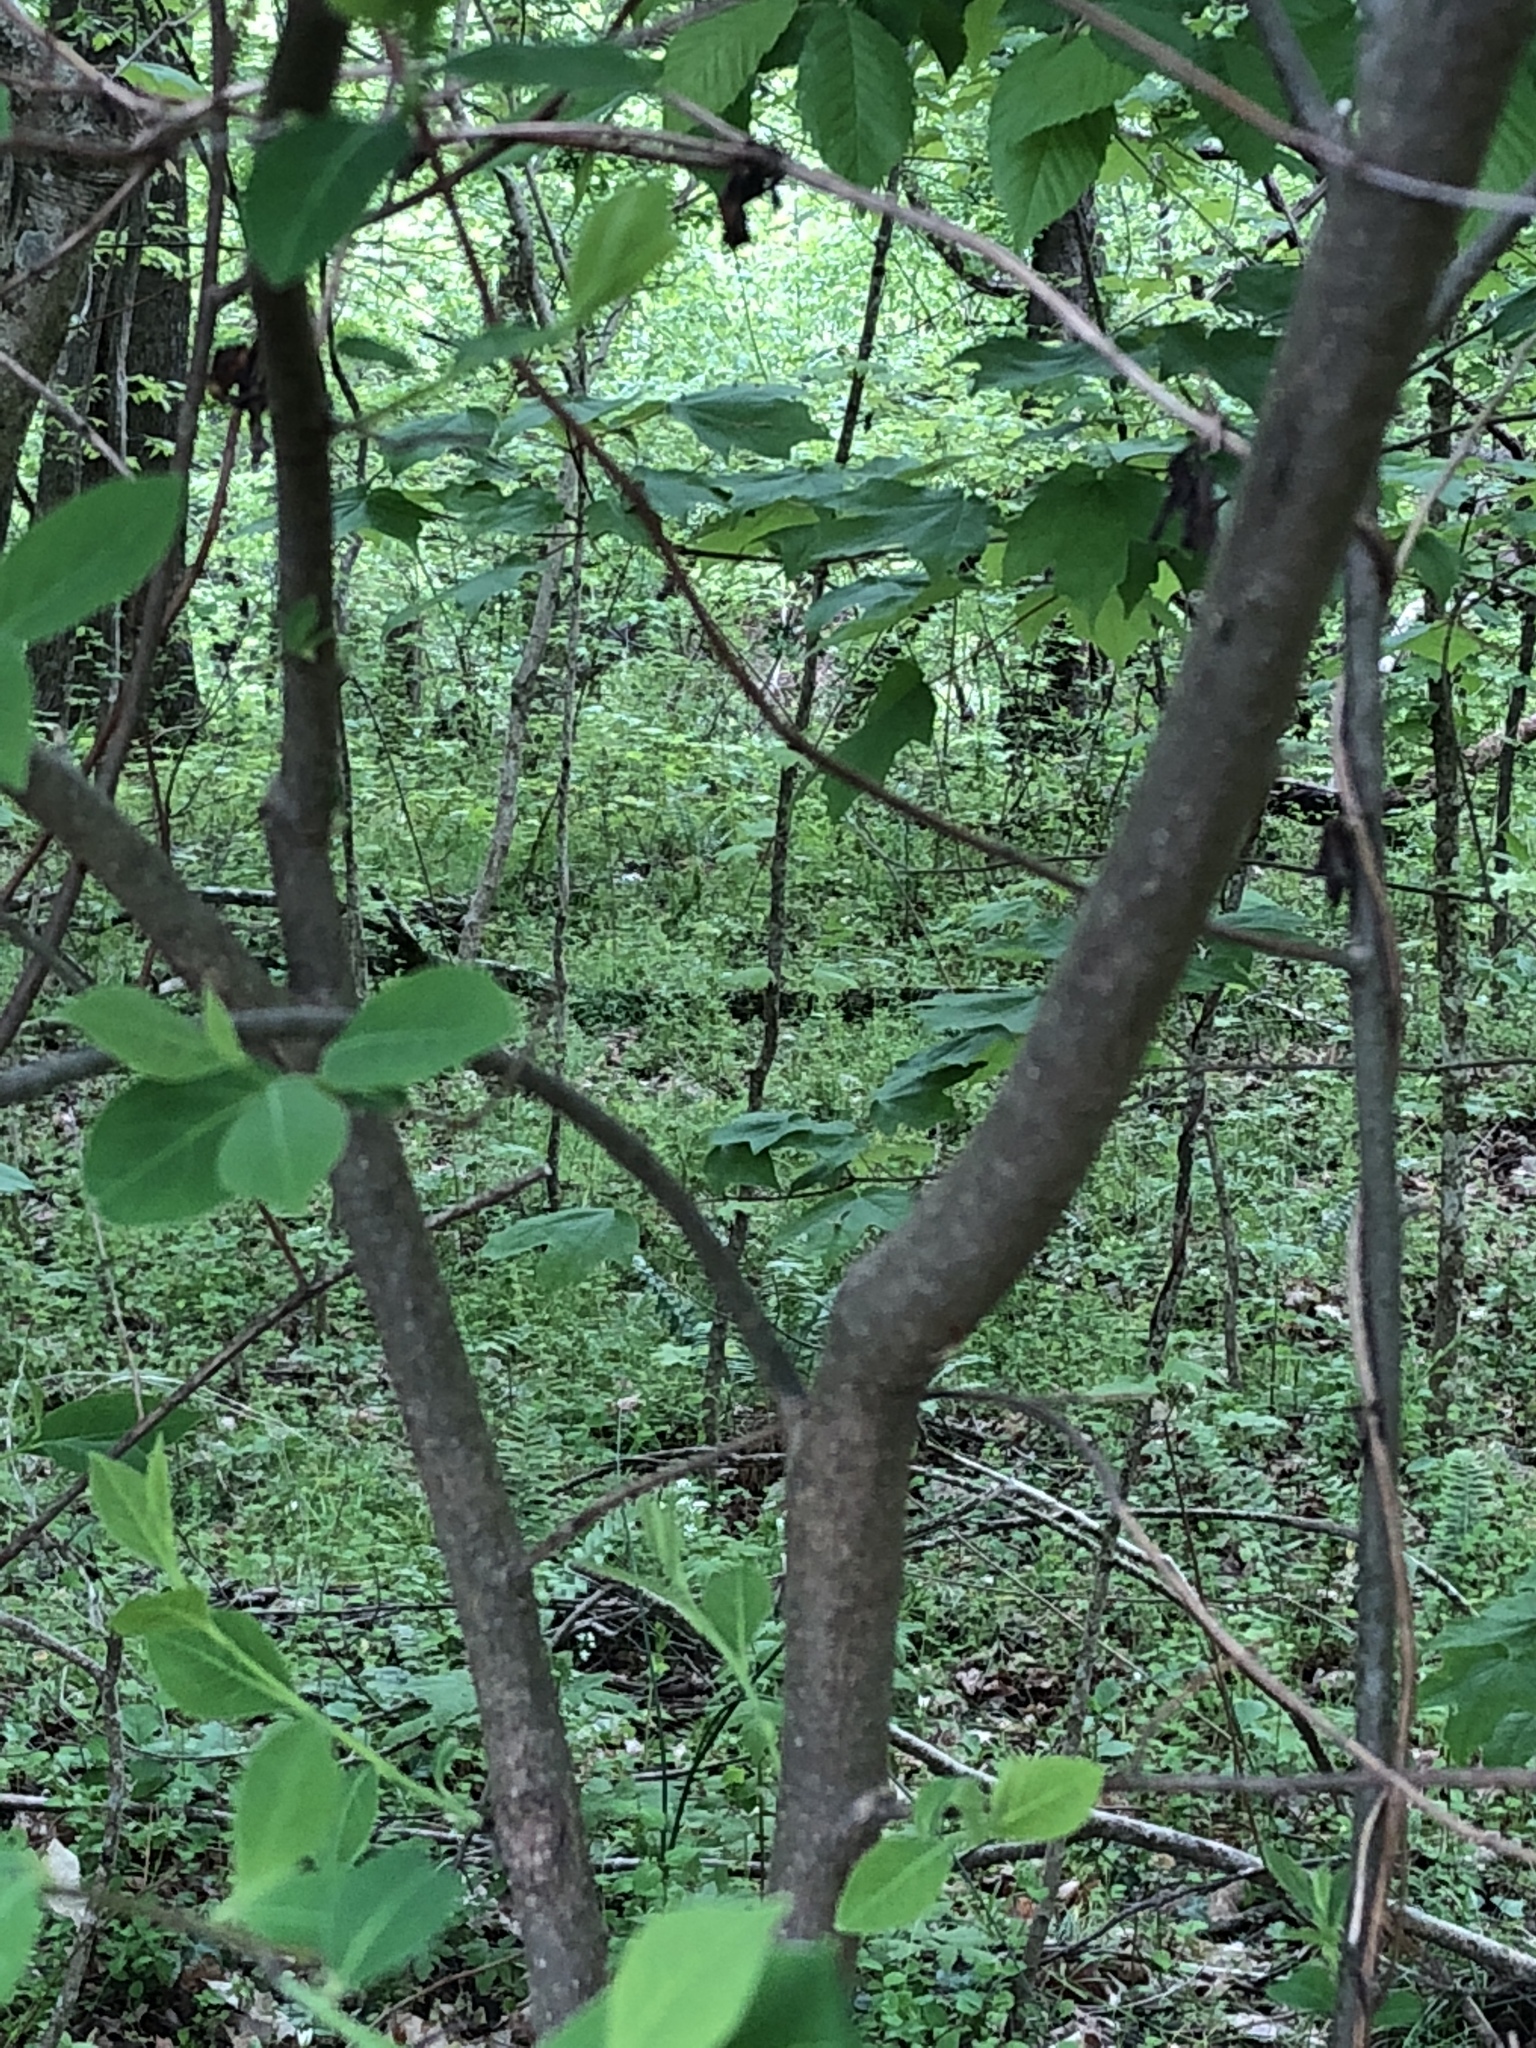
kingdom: Plantae
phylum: Tracheophyta
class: Magnoliopsida
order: Laurales
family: Lauraceae
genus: Lindera
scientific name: Lindera benzoin
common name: Spicebush
